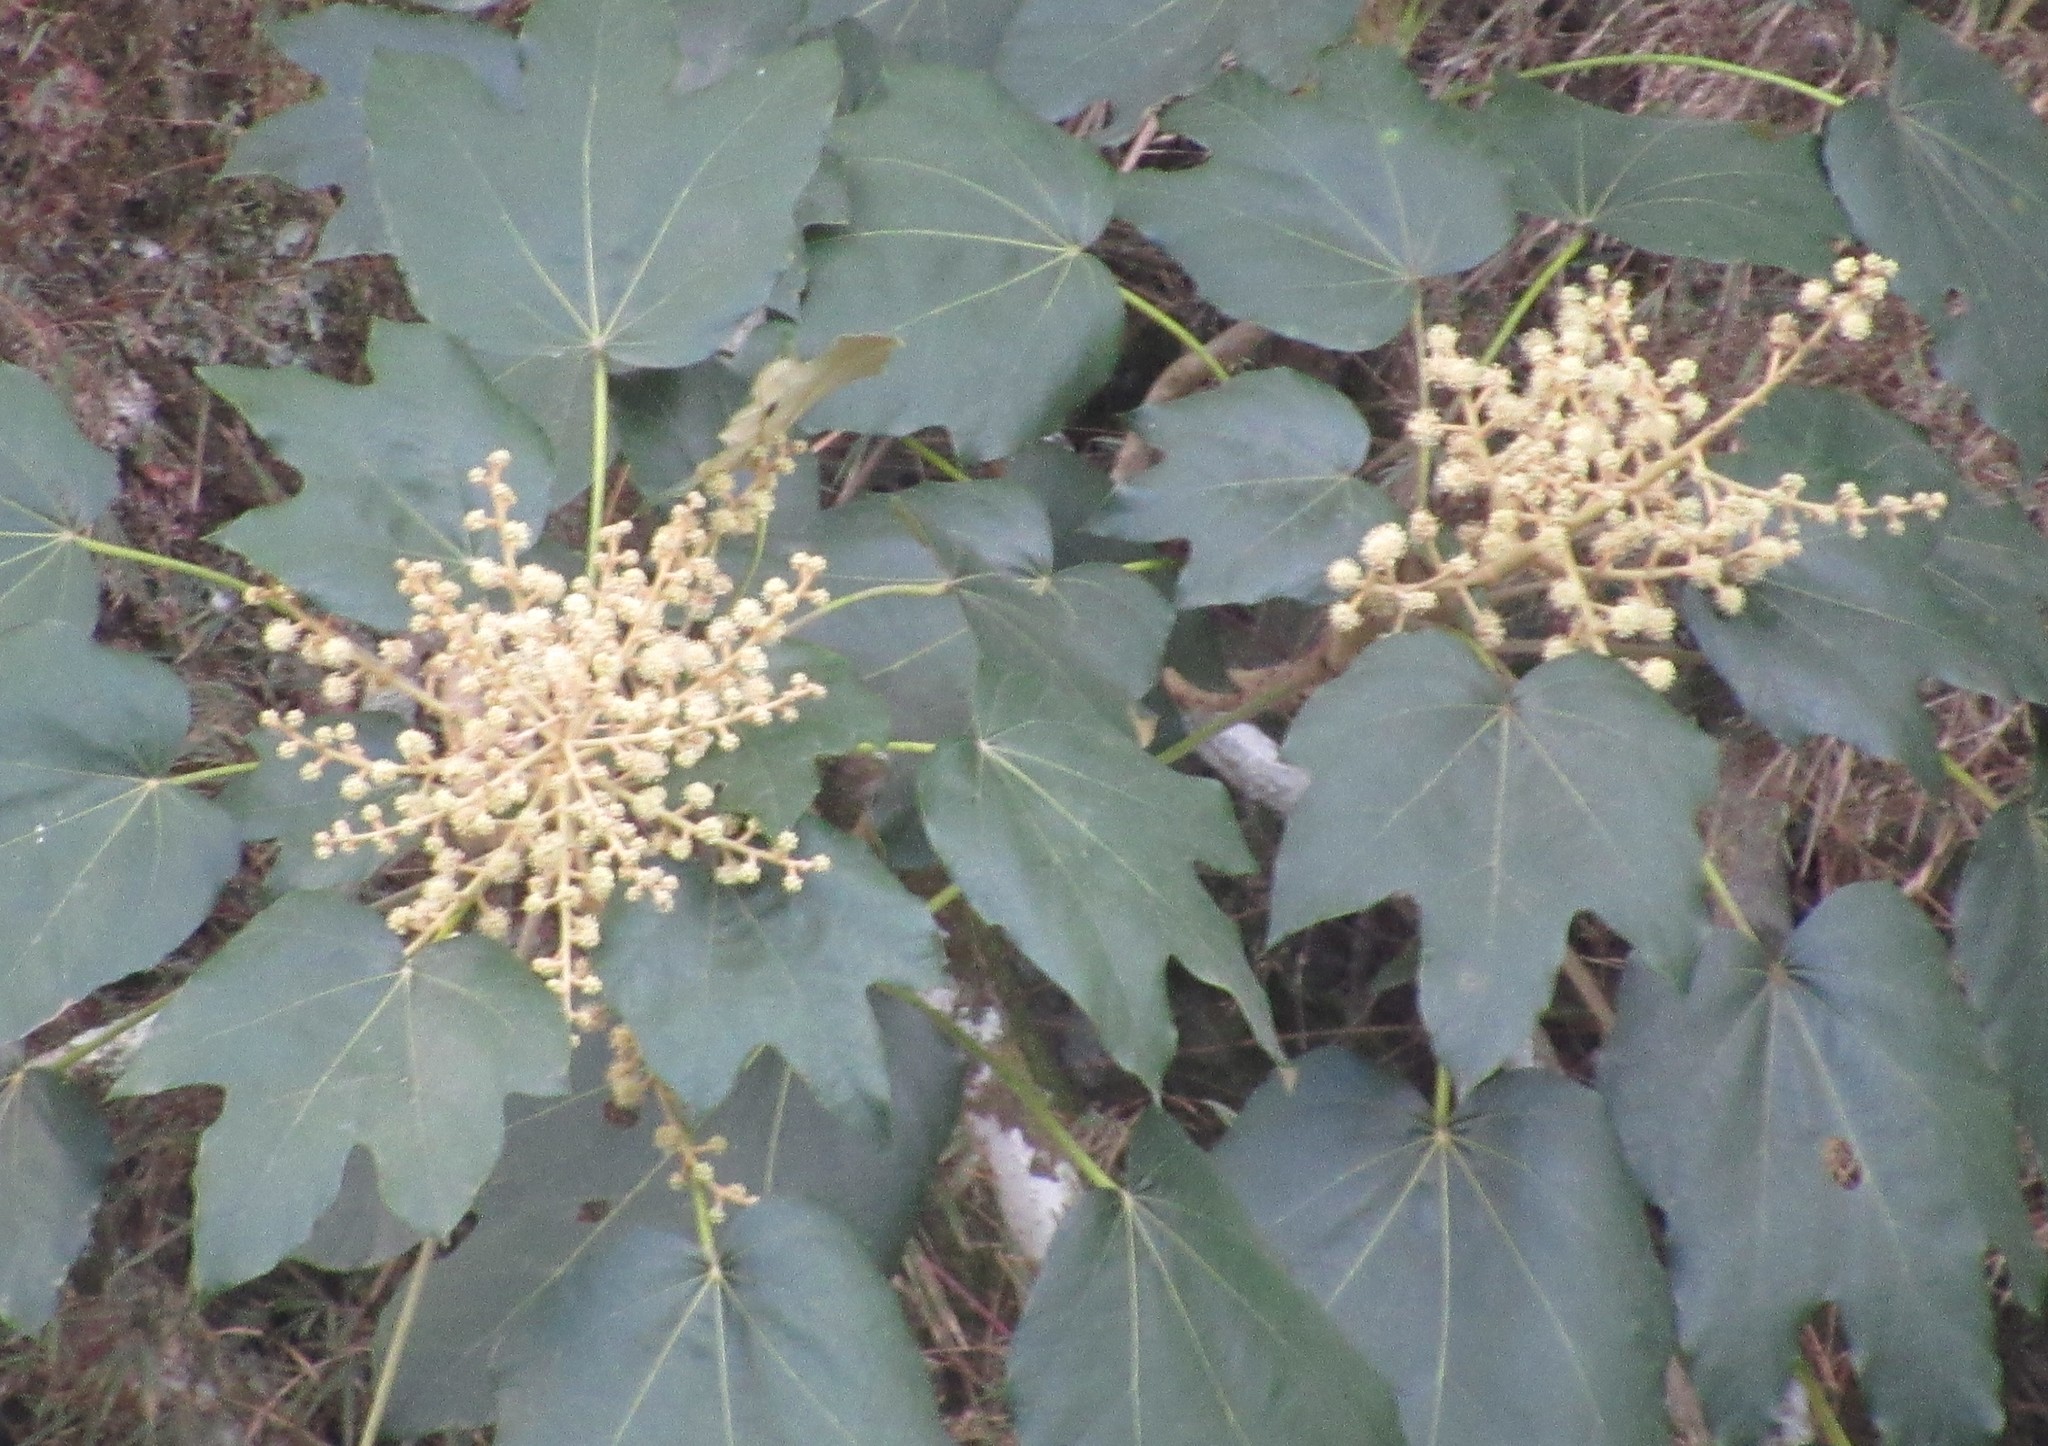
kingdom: Plantae
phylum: Tracheophyta
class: Magnoliopsida
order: Apiales
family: Araliaceae
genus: Oreopanax
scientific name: Oreopanax fulvus
